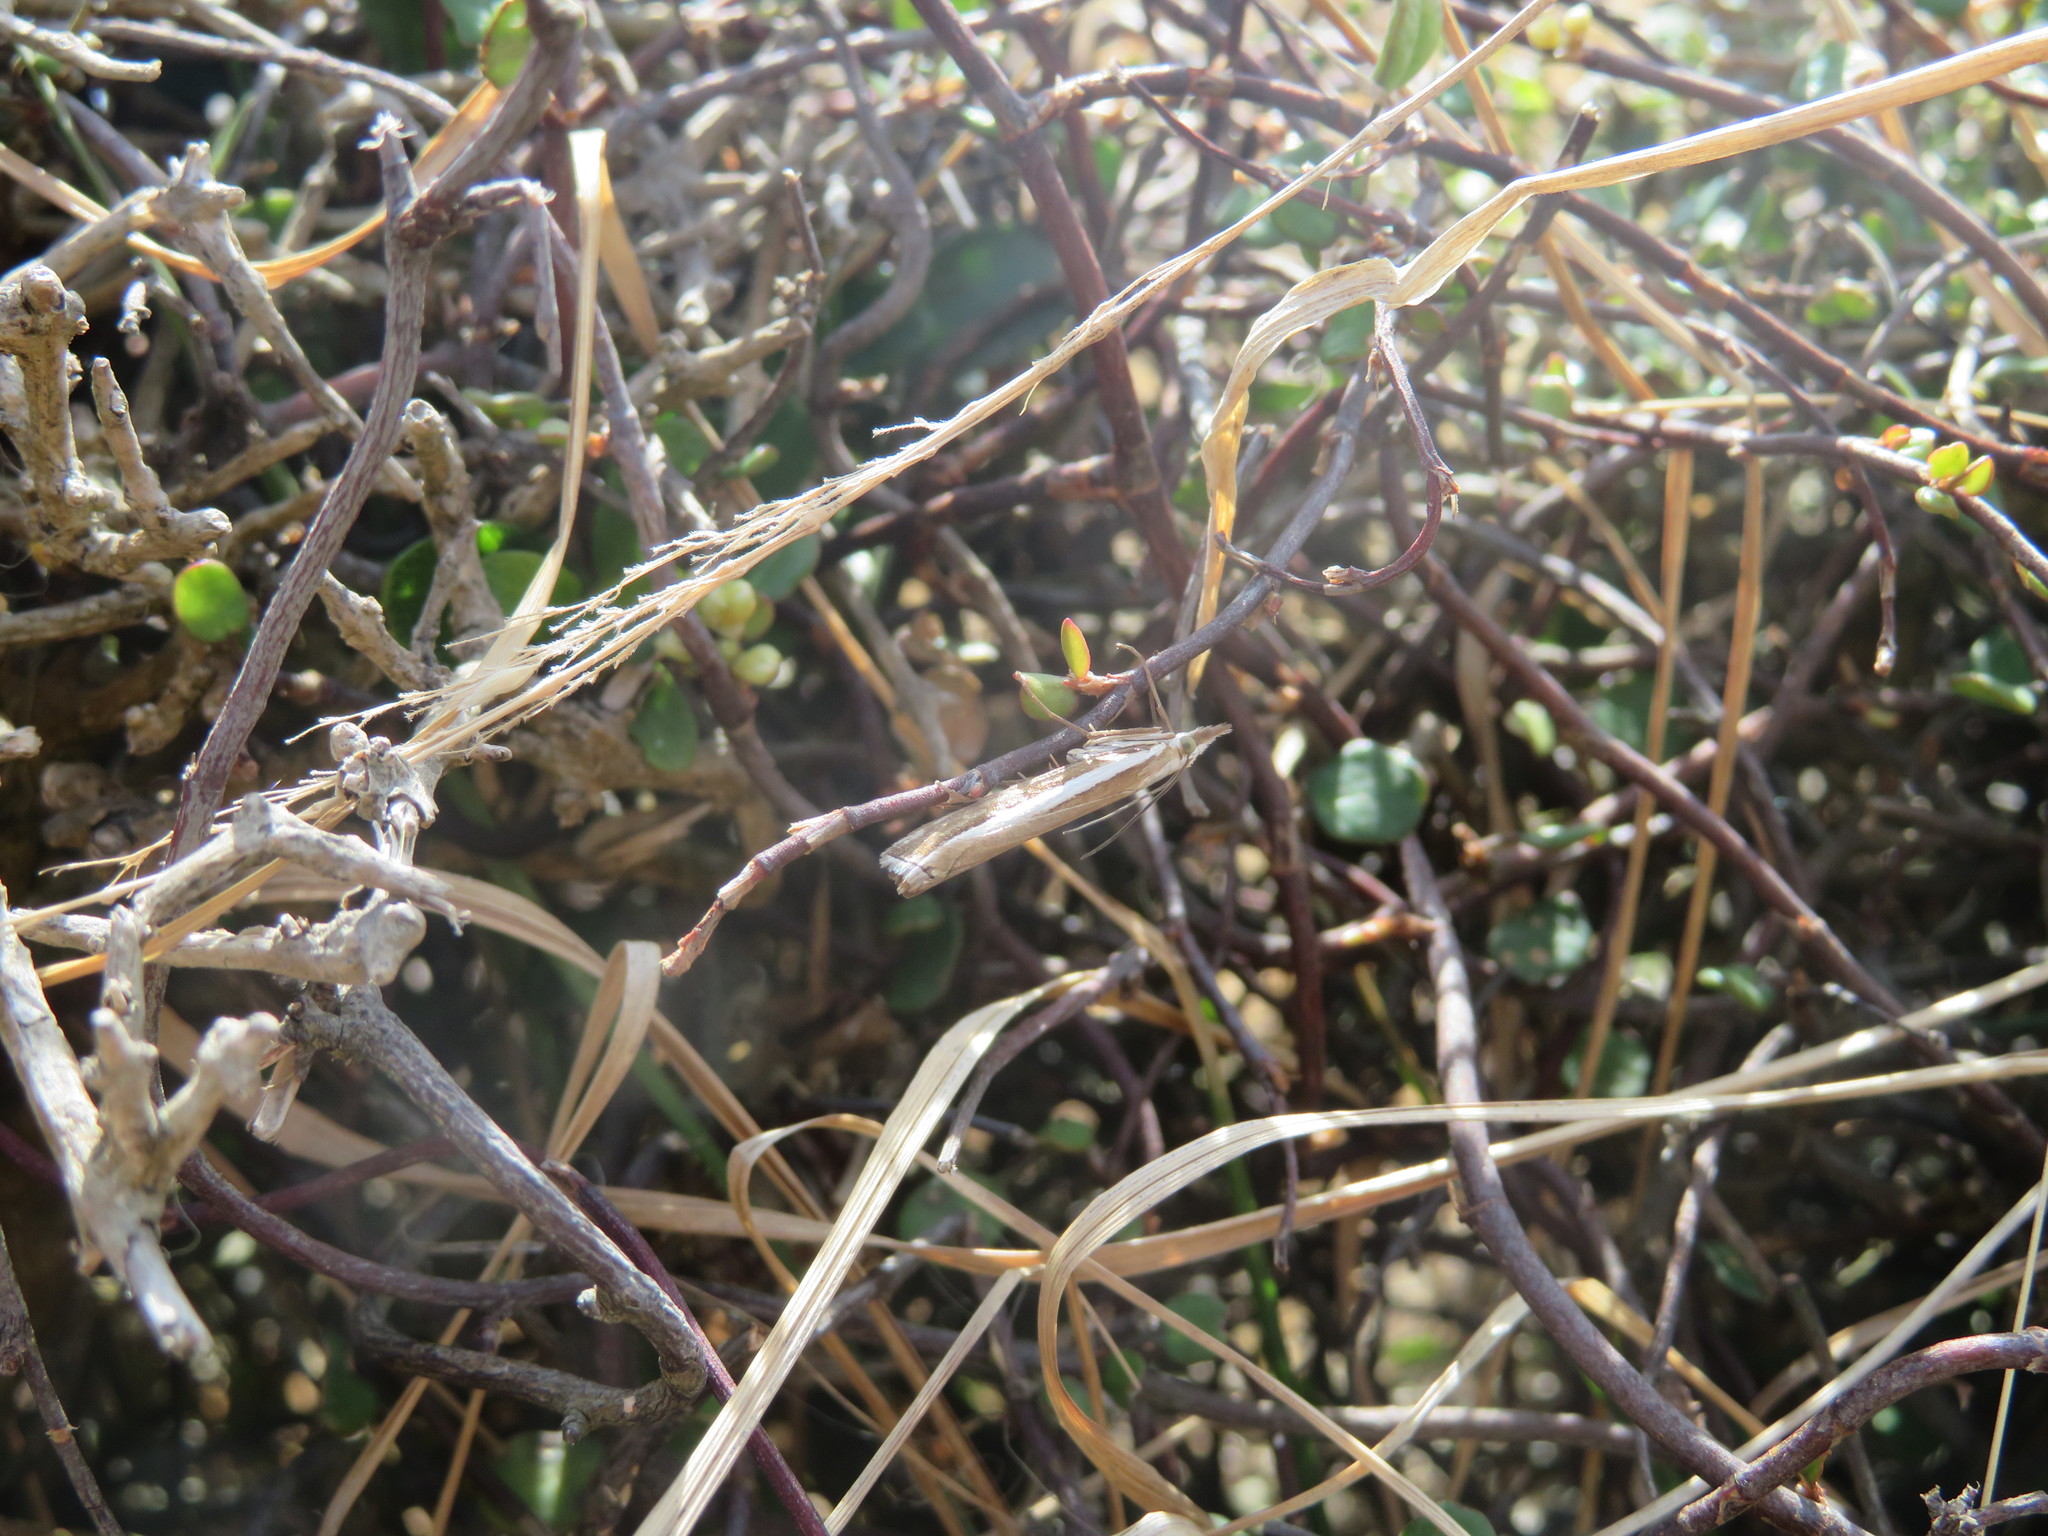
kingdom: Animalia
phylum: Arthropoda
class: Insecta
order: Lepidoptera
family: Crambidae
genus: Orocrambus
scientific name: Orocrambus vittellus
